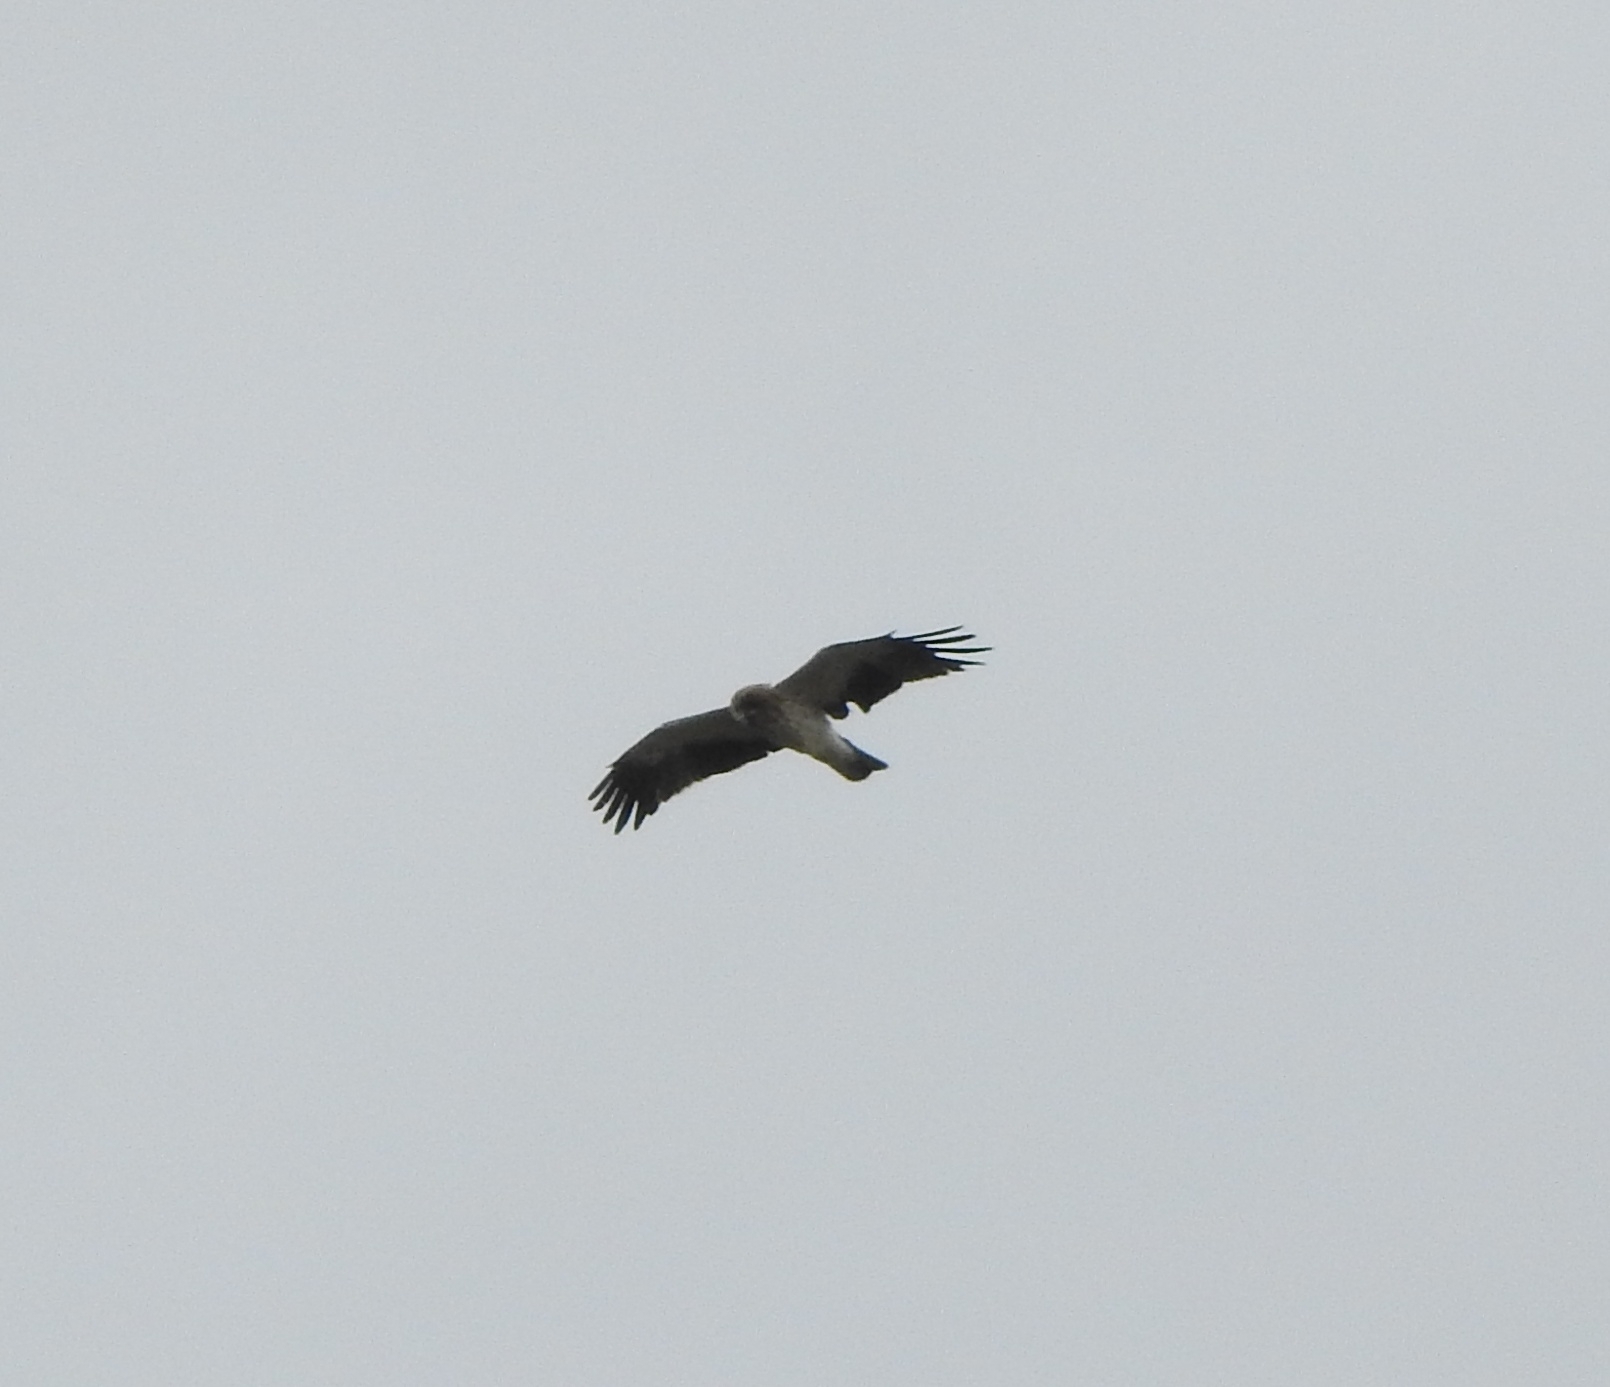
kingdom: Animalia
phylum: Chordata
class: Aves
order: Accipitriformes
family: Accipitridae
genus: Hieraaetus
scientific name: Hieraaetus pennatus
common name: Booted eagle
